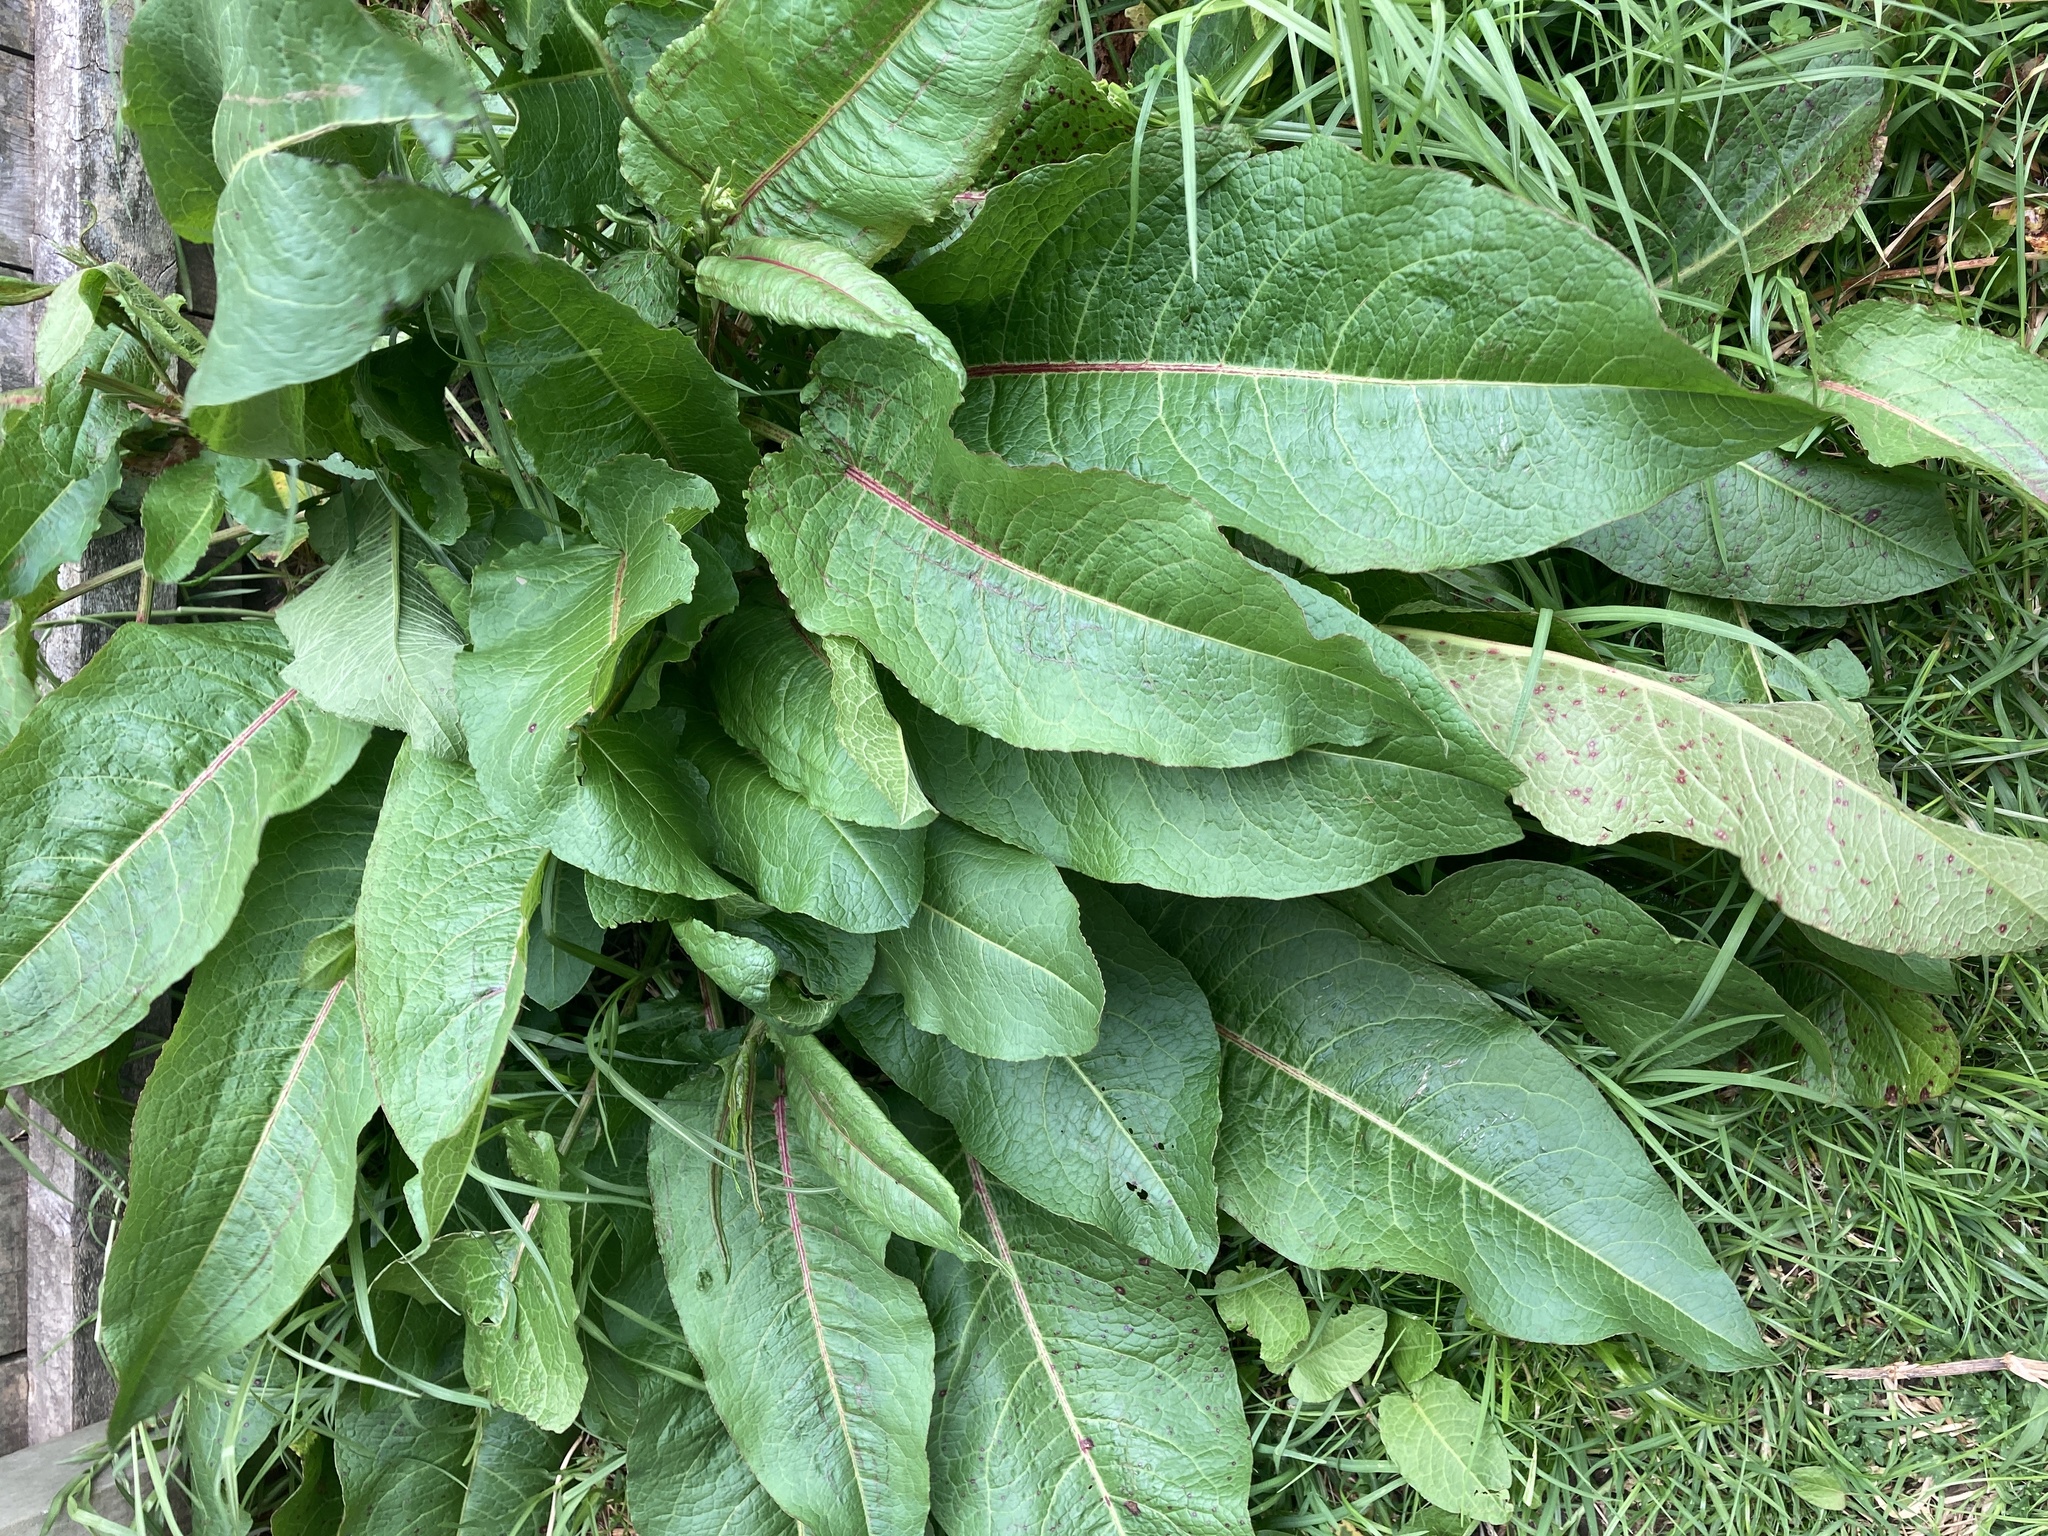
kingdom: Plantae
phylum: Tracheophyta
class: Magnoliopsida
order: Caryophyllales
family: Polygonaceae
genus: Rumex
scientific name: Rumex obtusifolius
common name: Bitter dock
